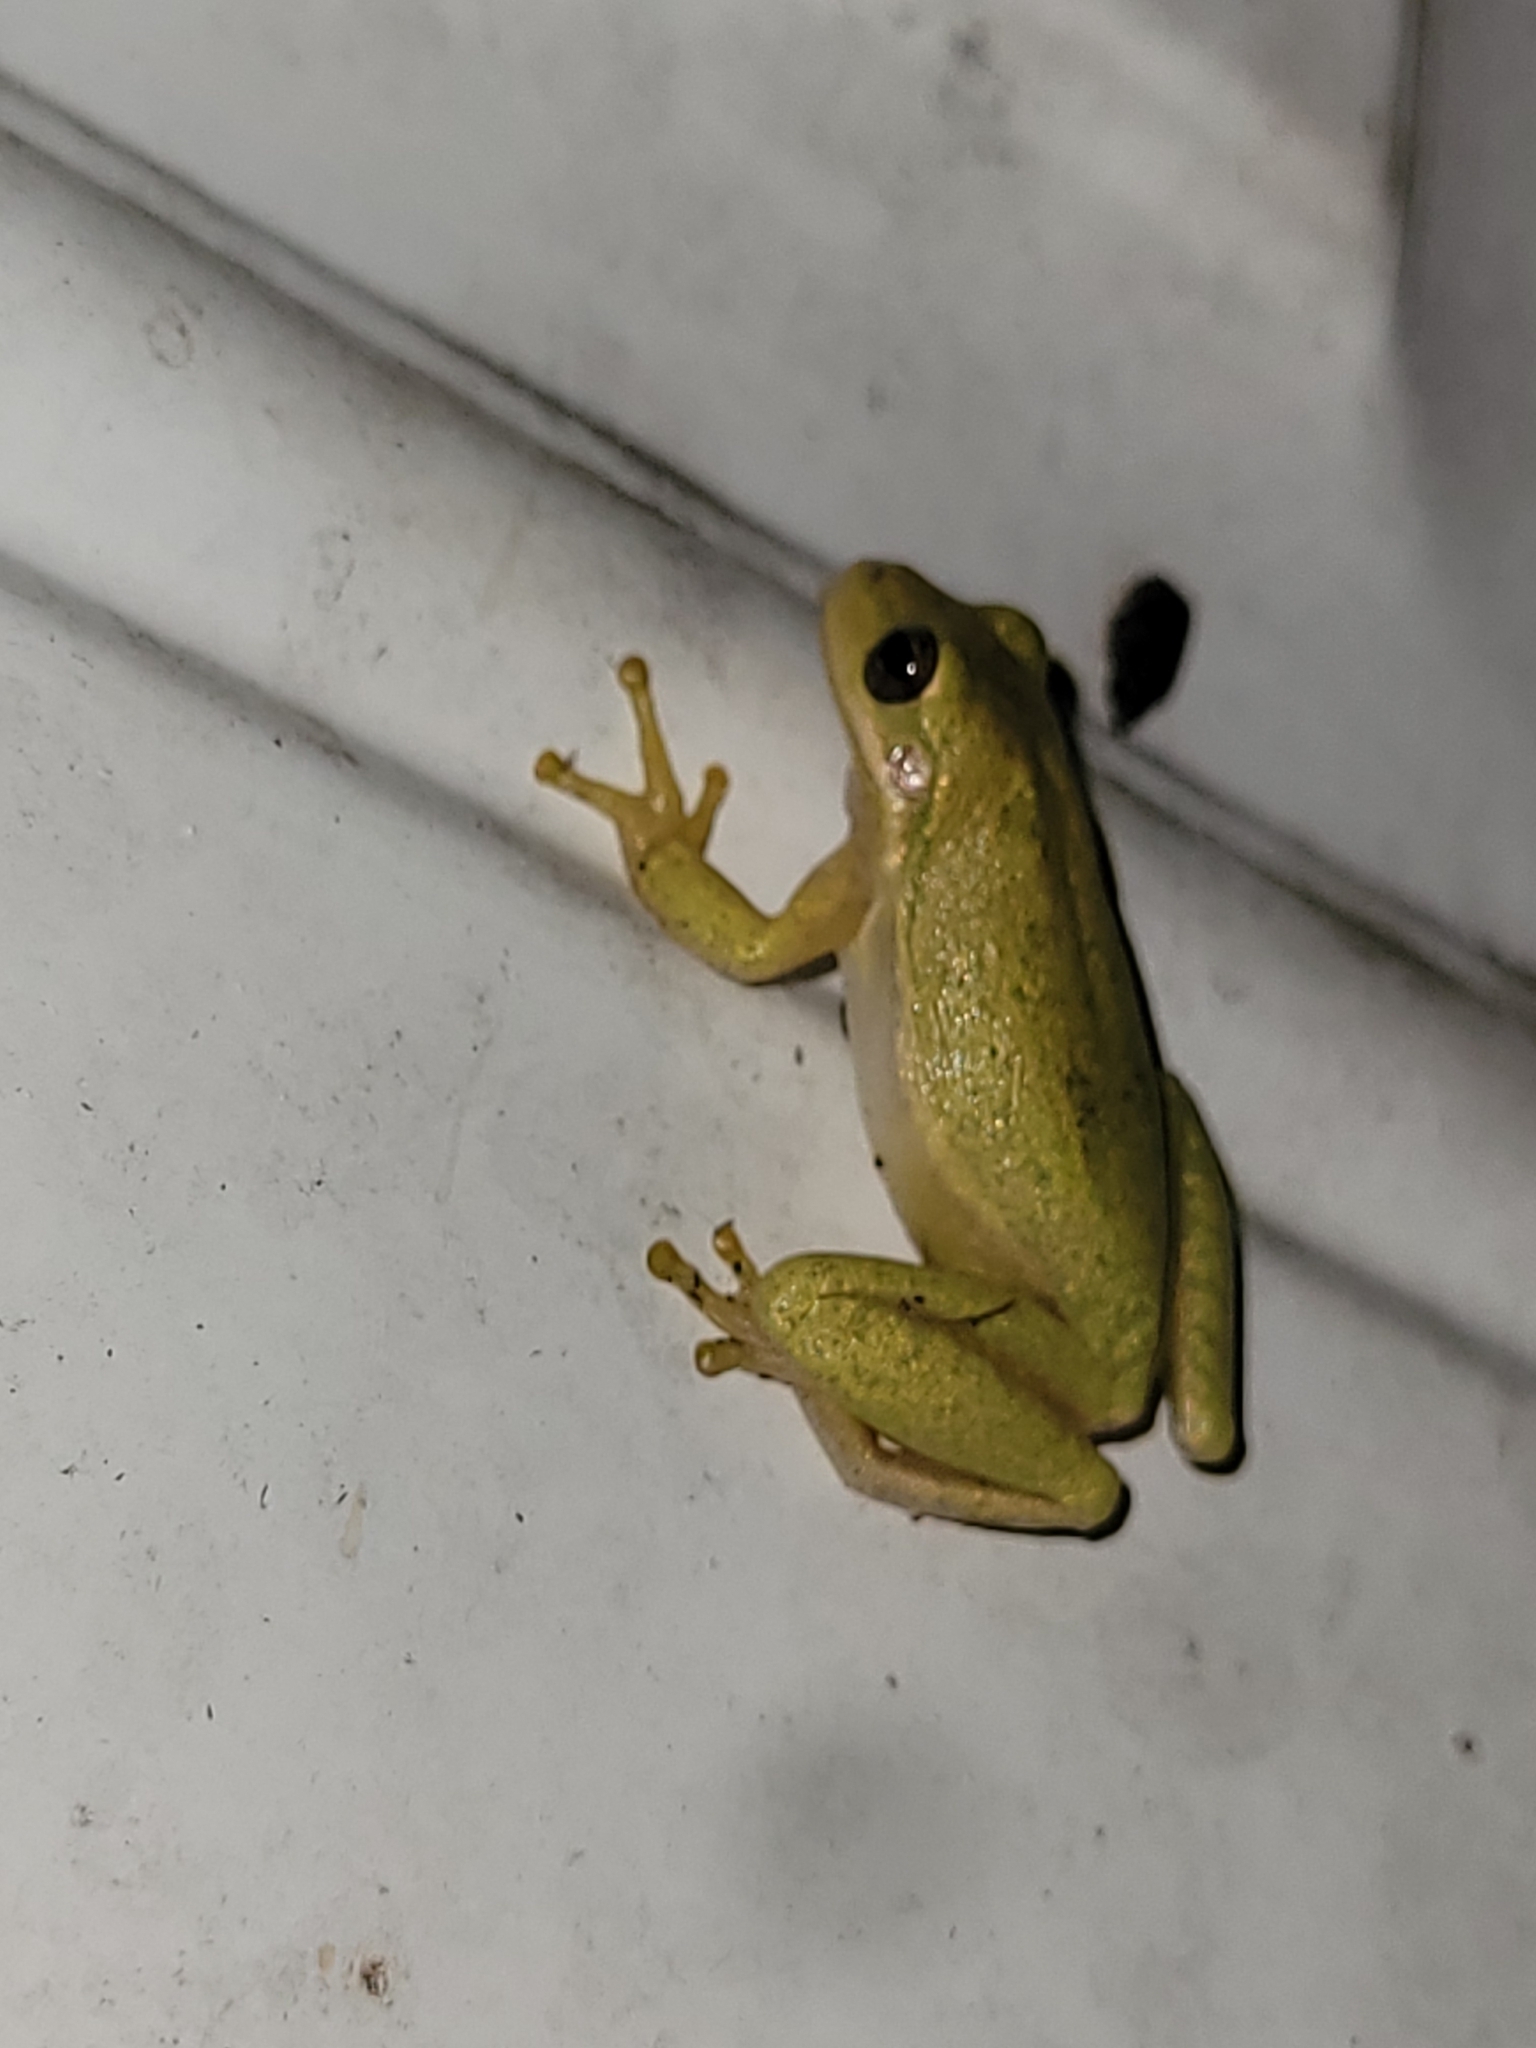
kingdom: Animalia
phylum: Chordata
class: Amphibia
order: Anura
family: Hylidae
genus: Dryophytes
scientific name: Dryophytes squirellus
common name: Squirrel treefrog
